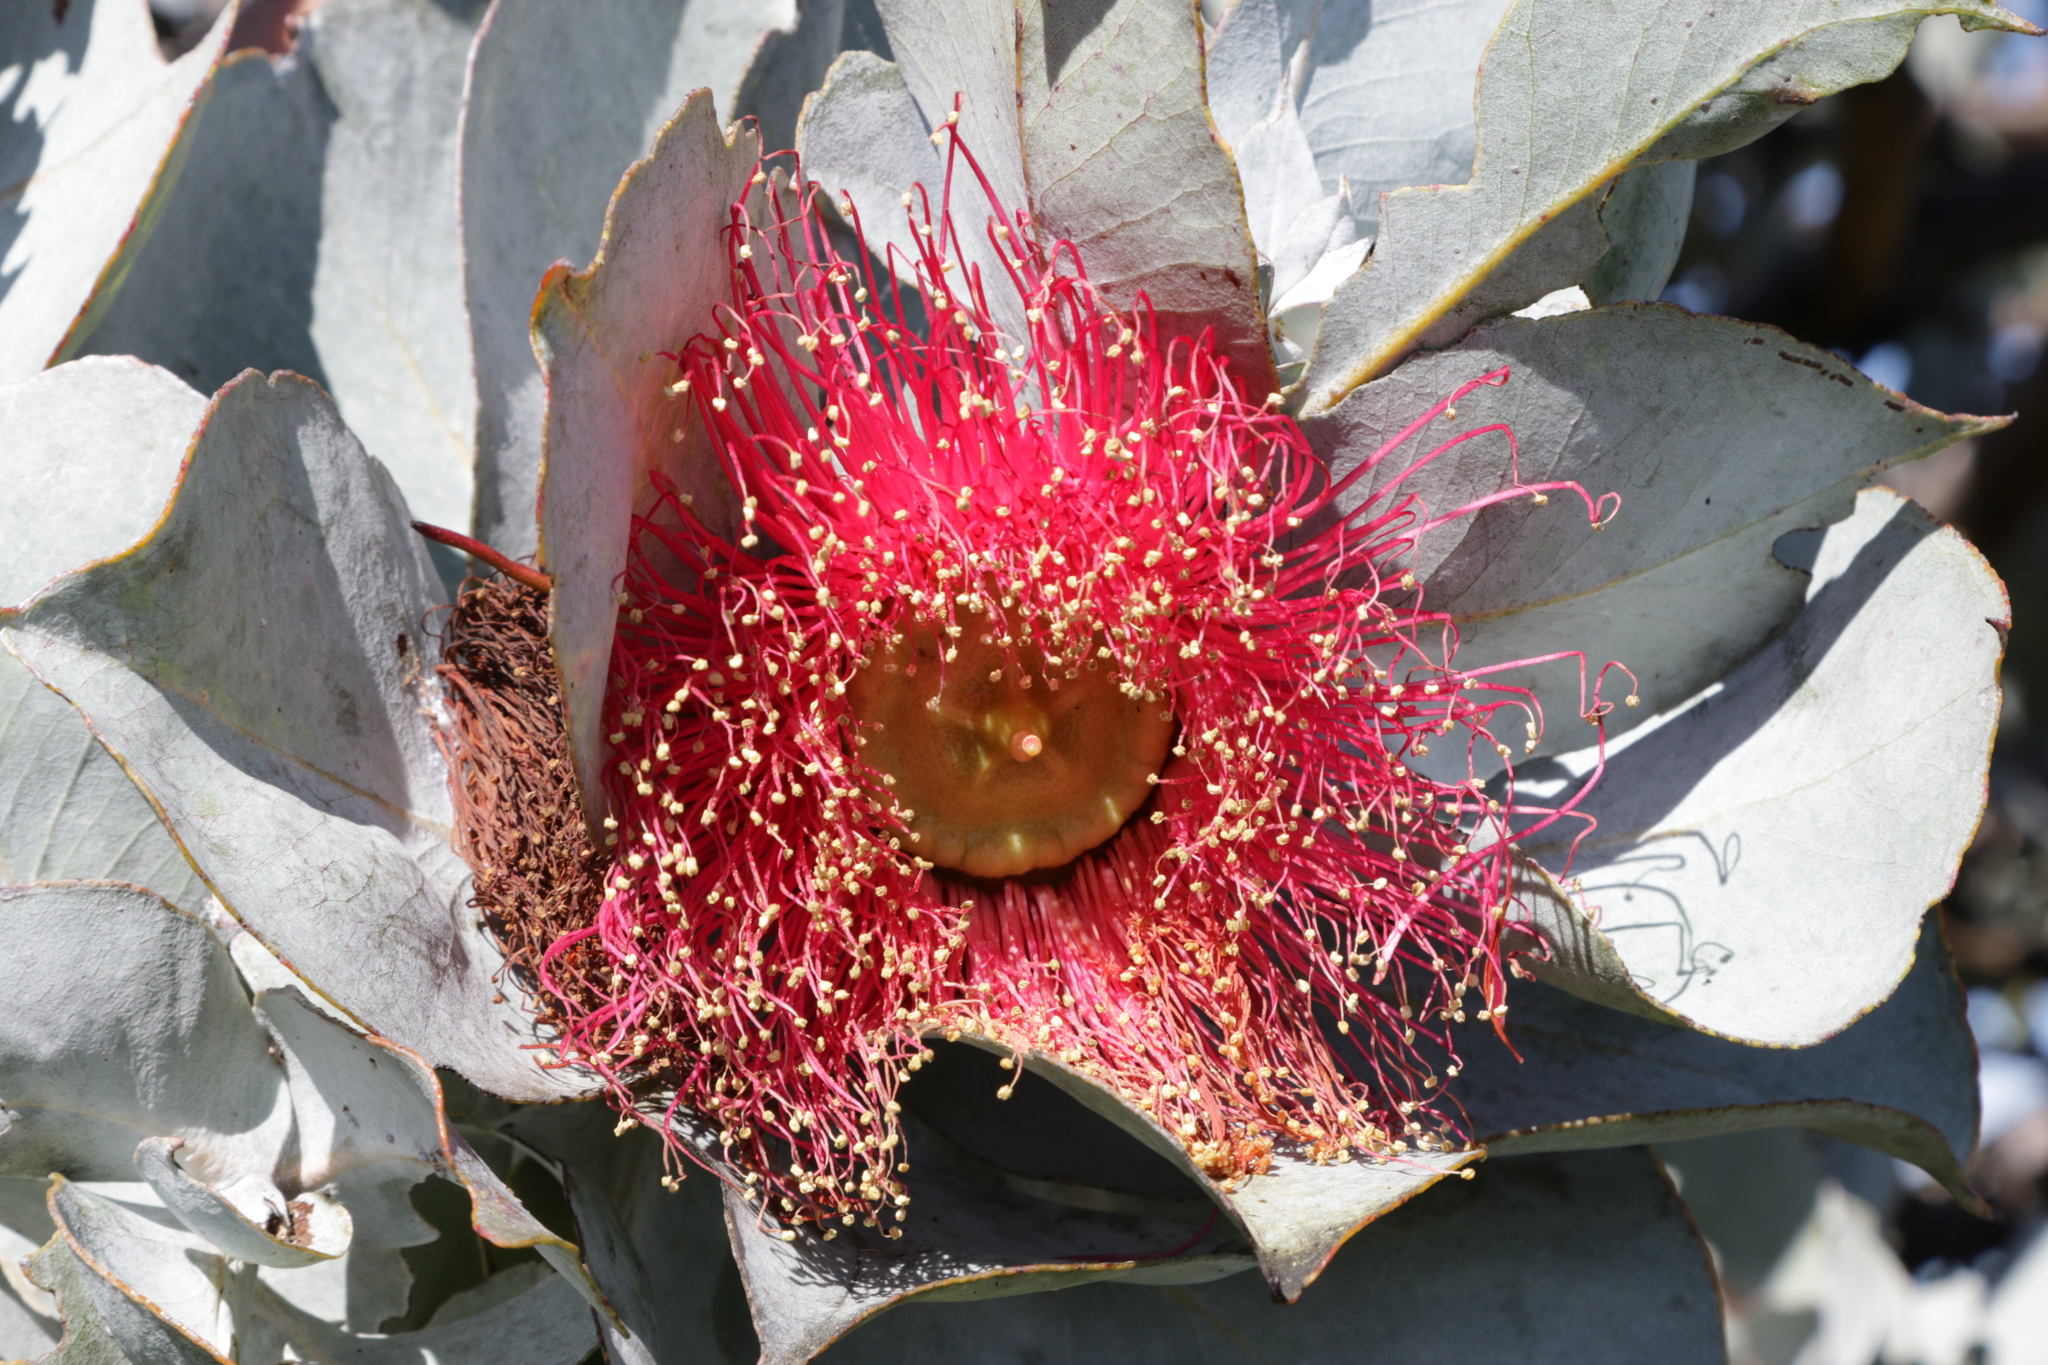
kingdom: Plantae
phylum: Tracheophyta
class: Magnoliopsida
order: Myrtales
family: Myrtaceae
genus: Eucalyptus
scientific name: Eucalyptus macrocarpa
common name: Mottlecah
